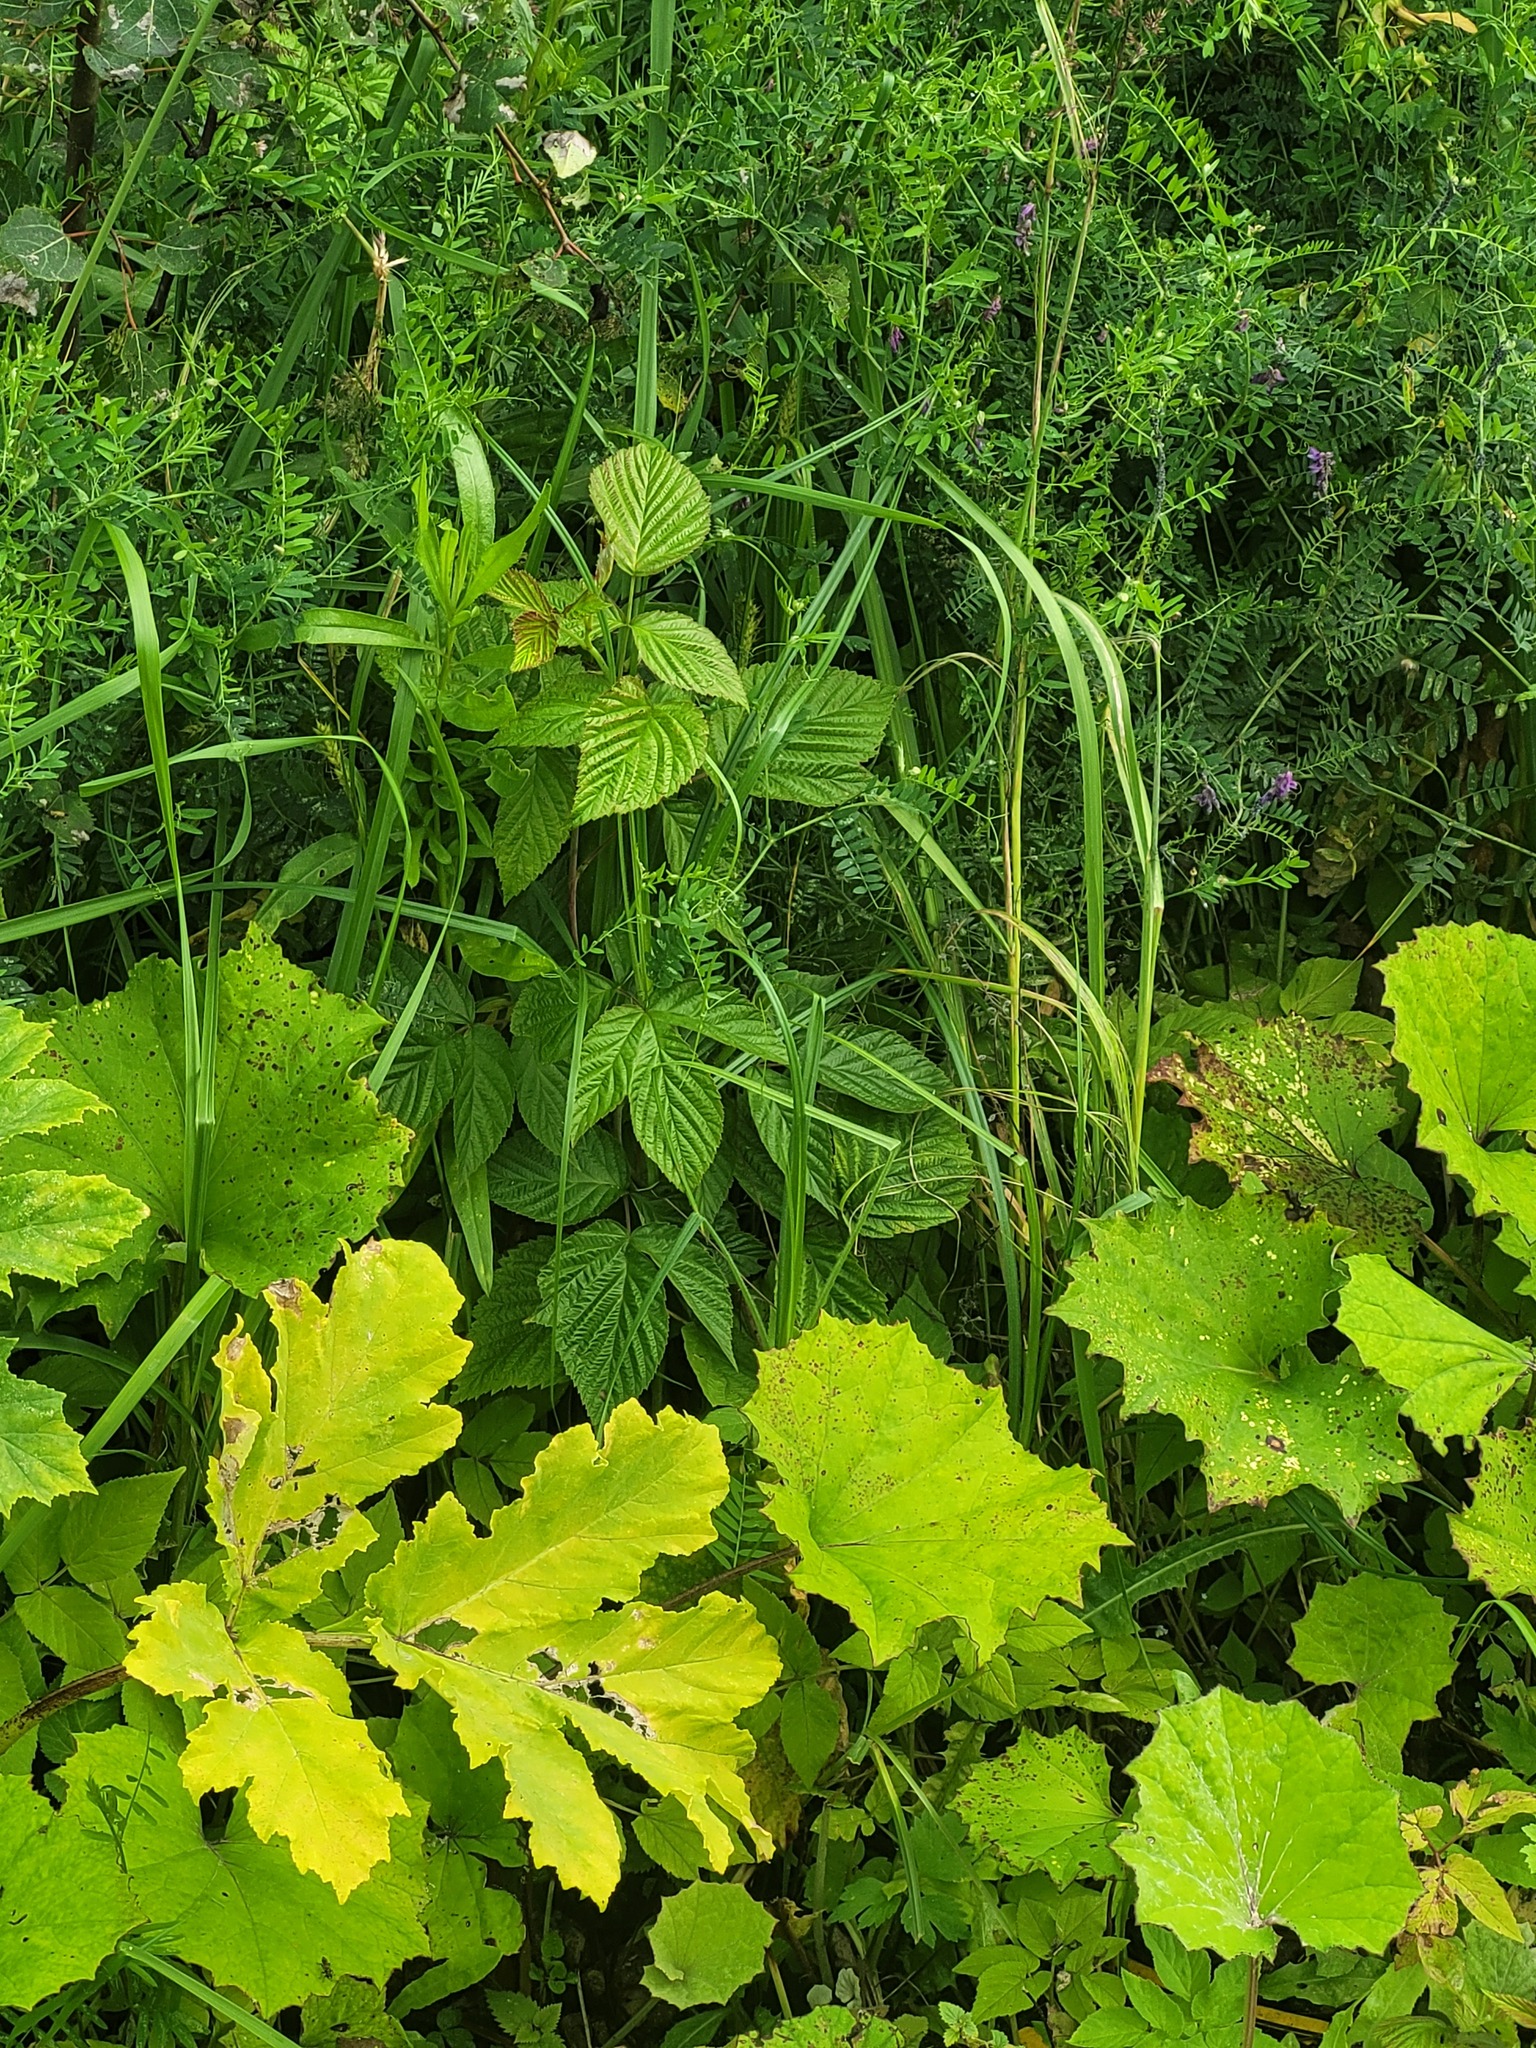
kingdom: Plantae
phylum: Tracheophyta
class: Magnoliopsida
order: Rosales
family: Rosaceae
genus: Rubus
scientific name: Rubus idaeus
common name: Raspberry
